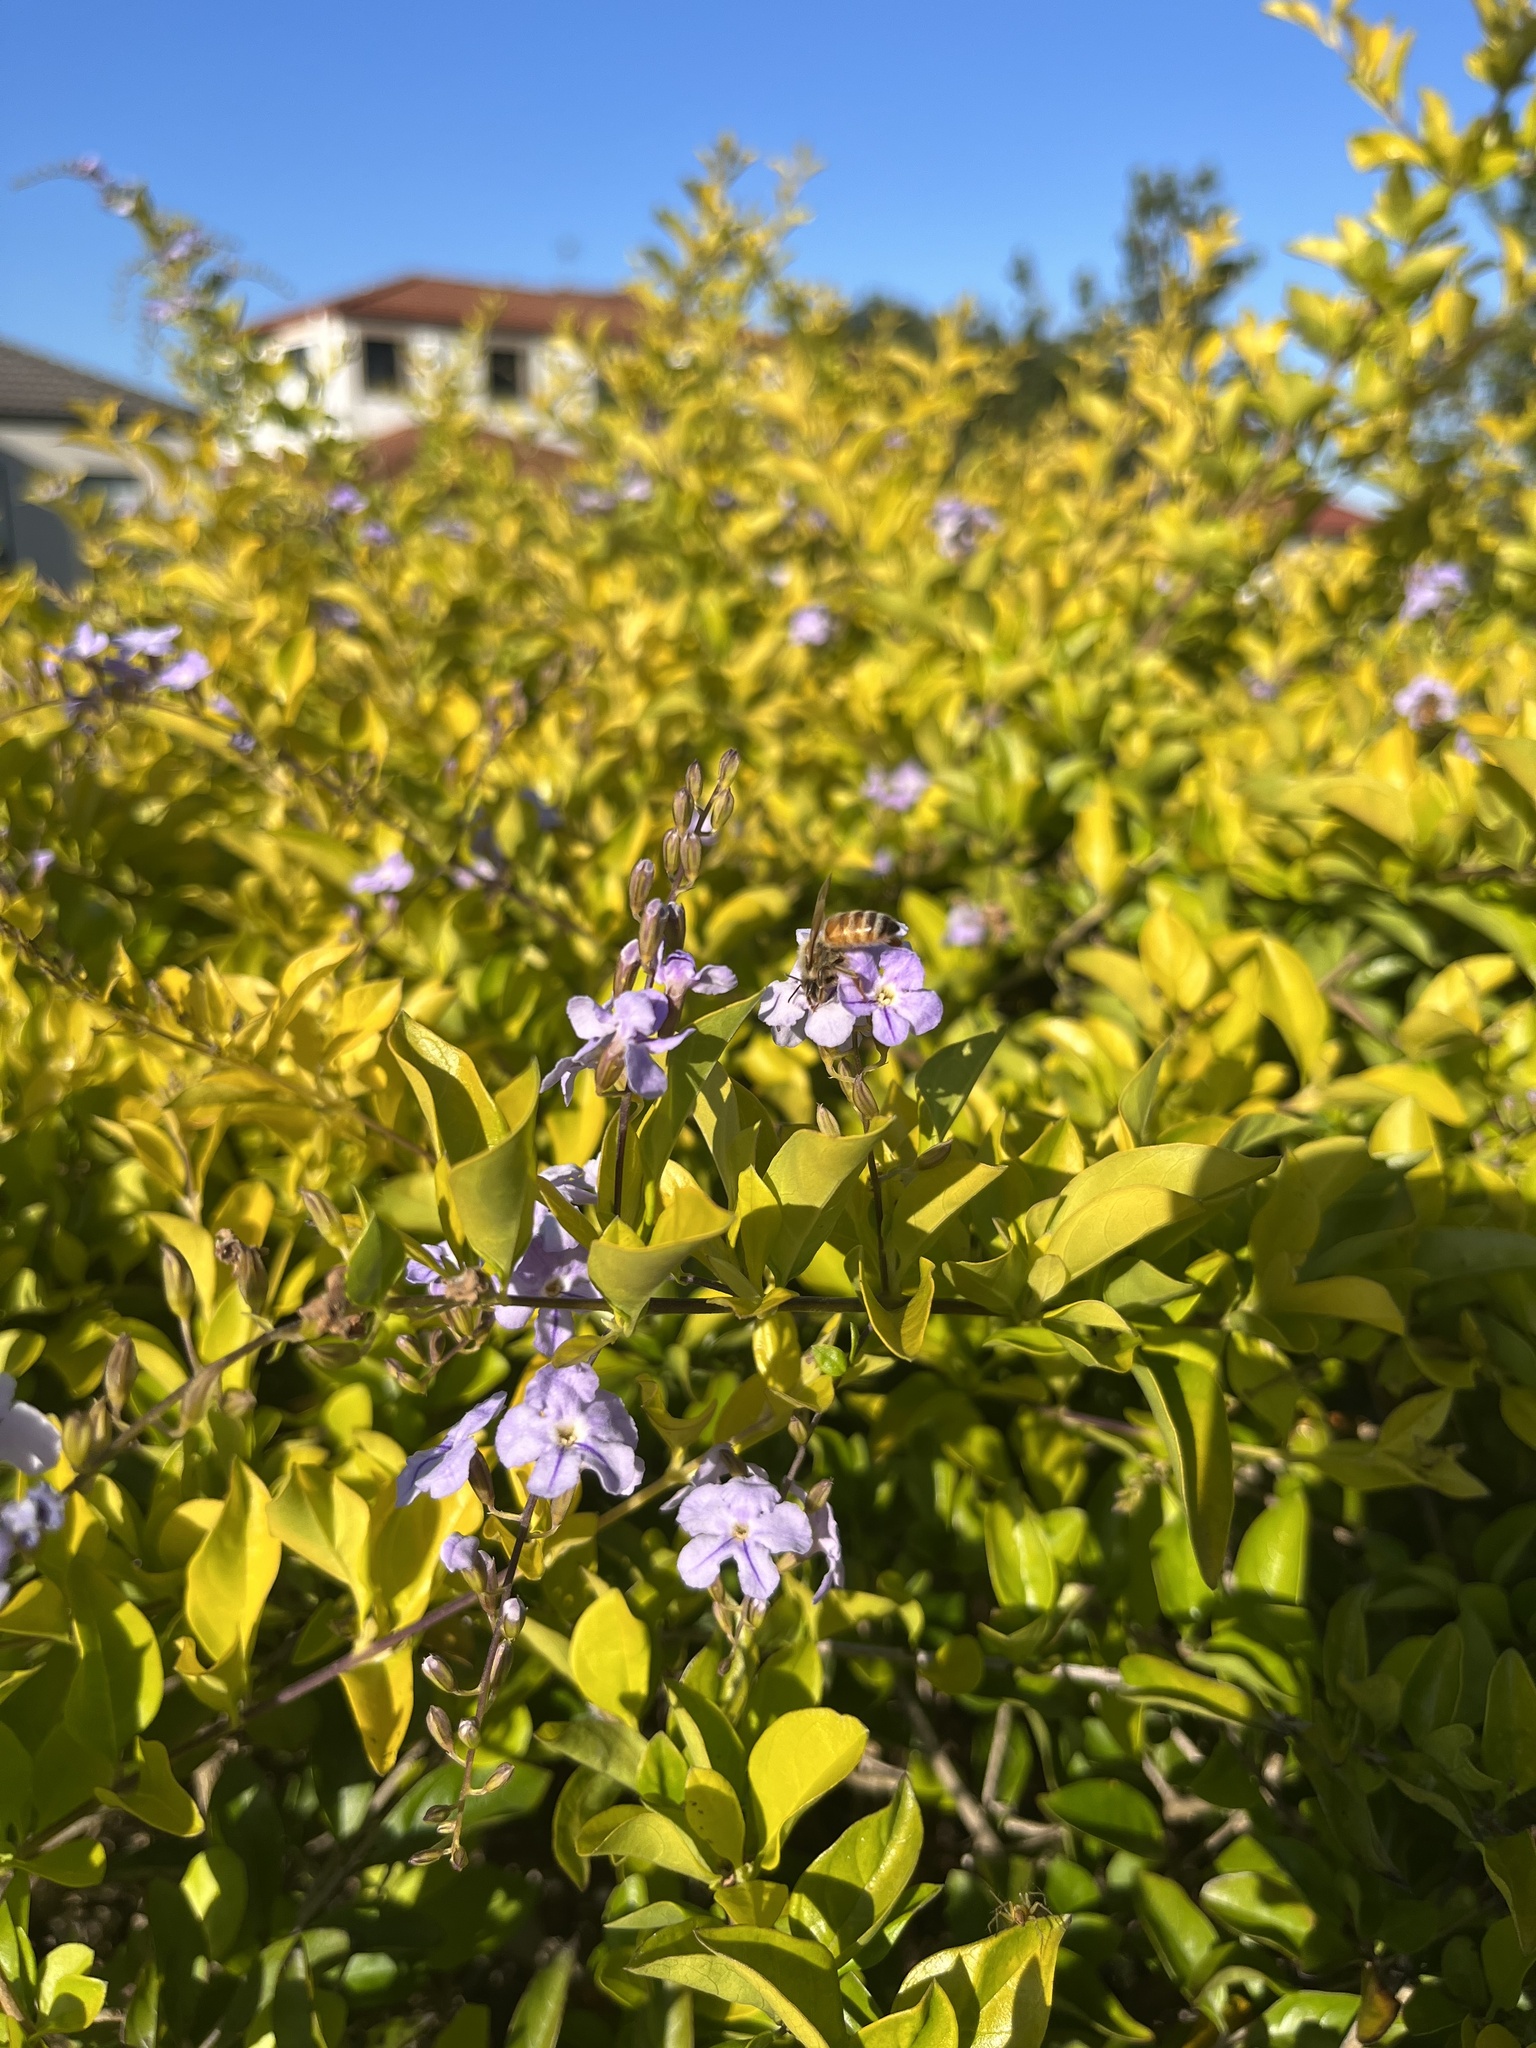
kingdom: Animalia
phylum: Arthropoda
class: Insecta
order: Hymenoptera
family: Apidae
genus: Apis
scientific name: Apis mellifera
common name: Honey bee
